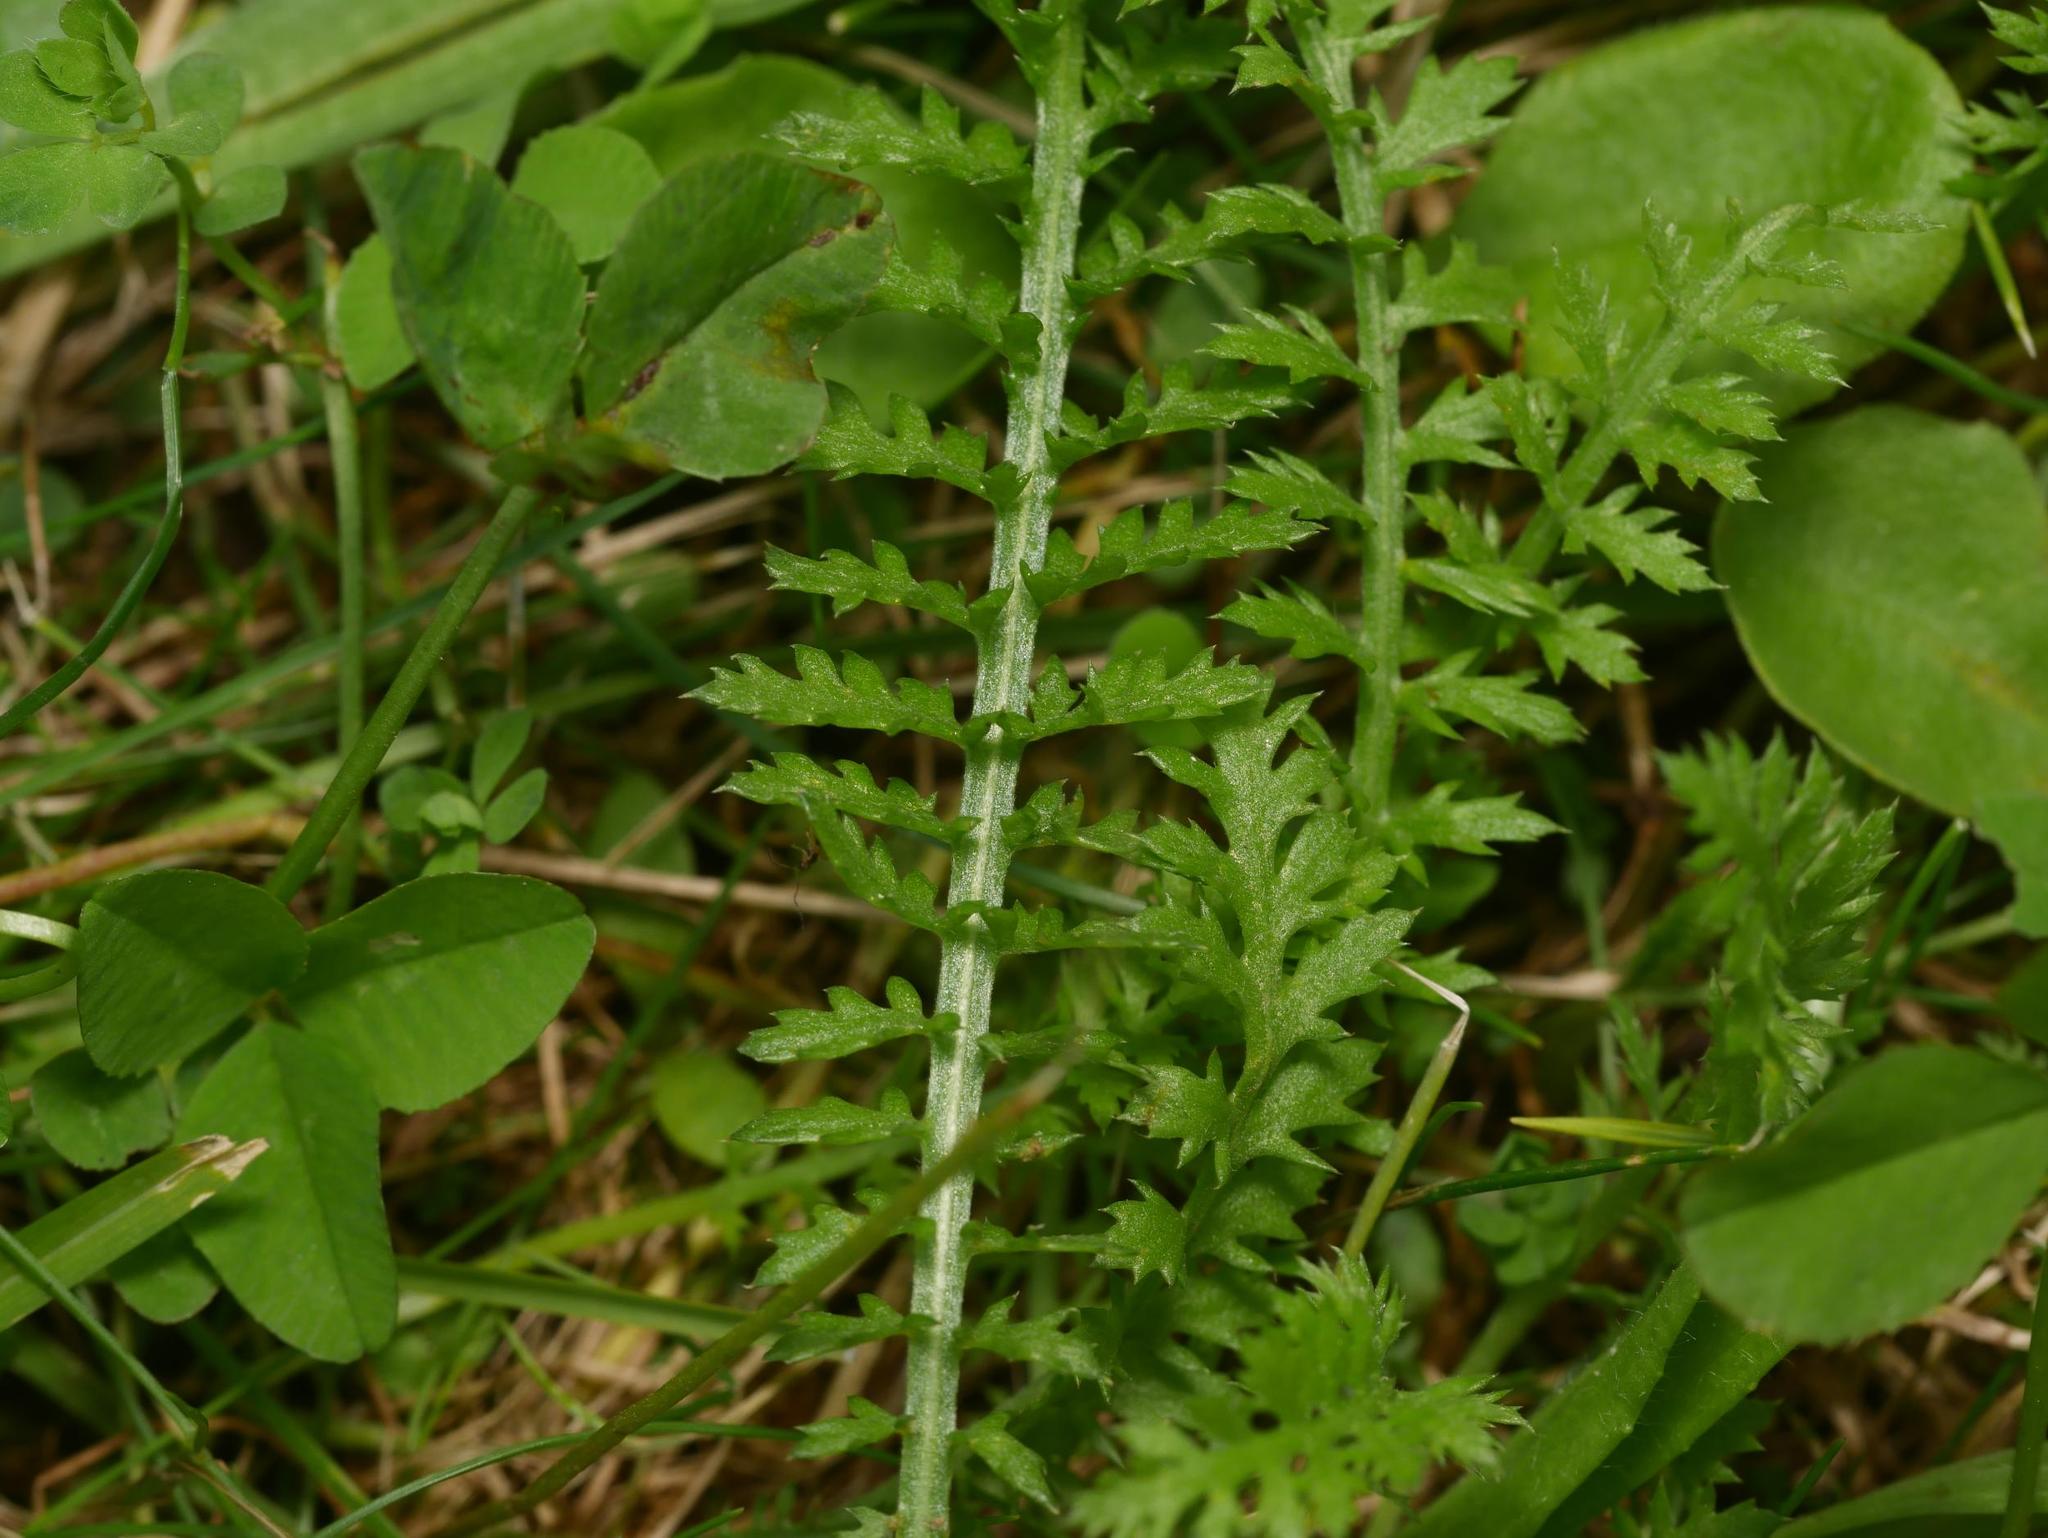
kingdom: Plantae
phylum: Tracheophyta
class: Magnoliopsida
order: Asterales
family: Asteraceae
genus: Achillea
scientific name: Achillea millefolium
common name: Yarrow
